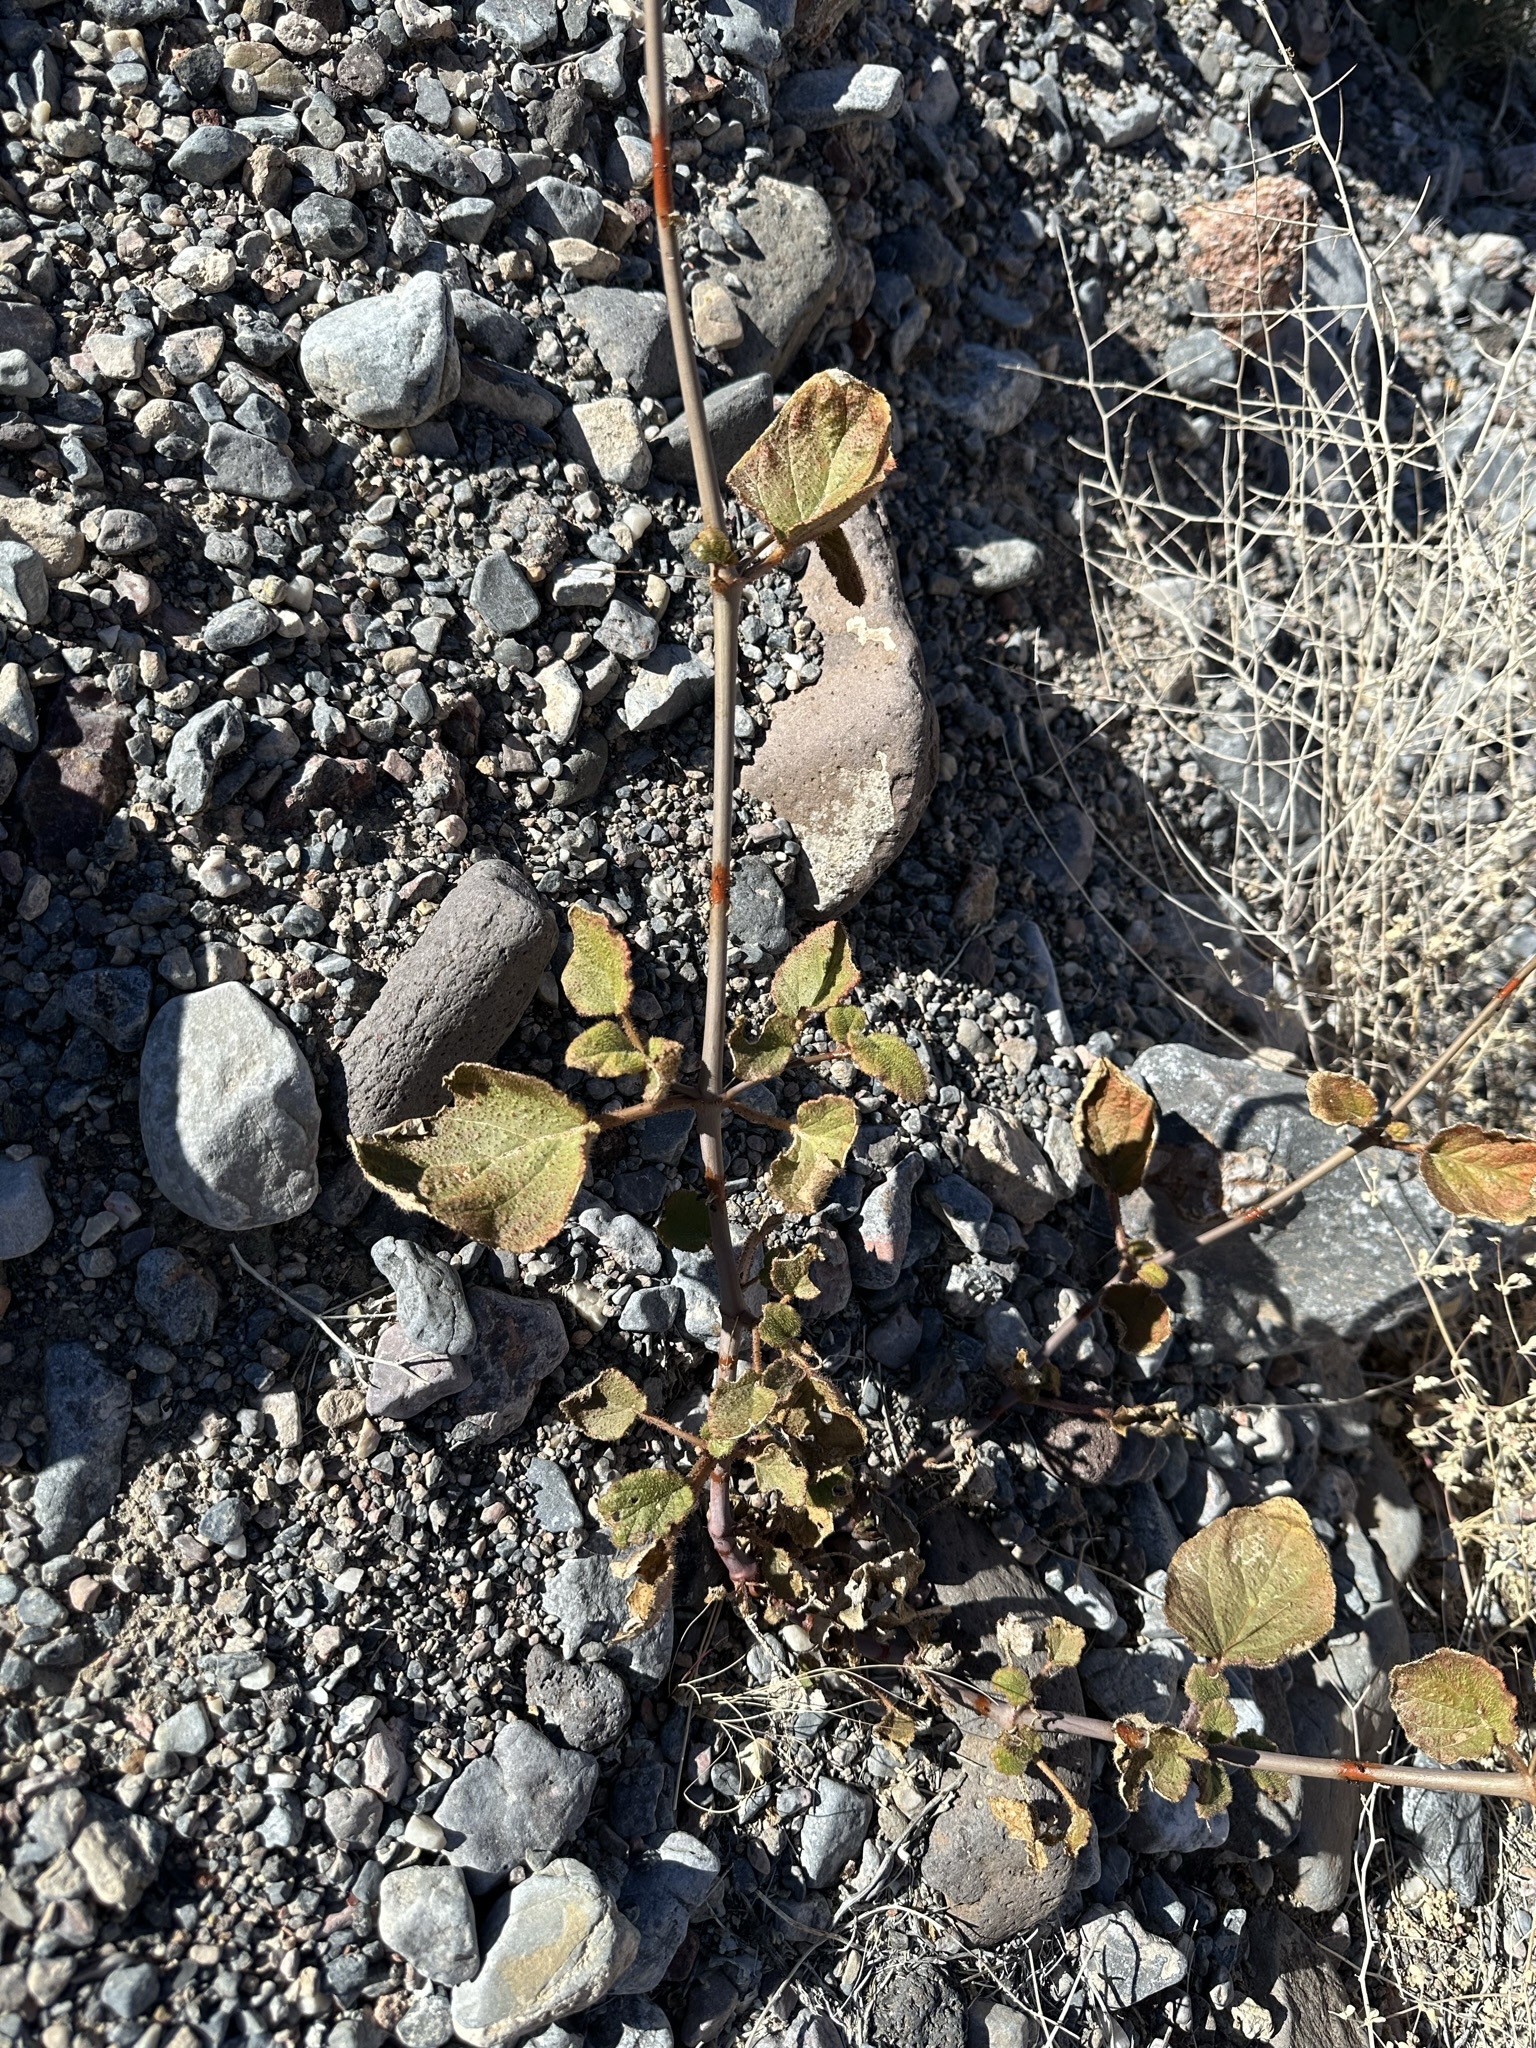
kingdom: Plantae
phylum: Tracheophyta
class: Magnoliopsida
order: Caryophyllales
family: Nyctaginaceae
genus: Anulocaulis
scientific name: Anulocaulis annulatus
